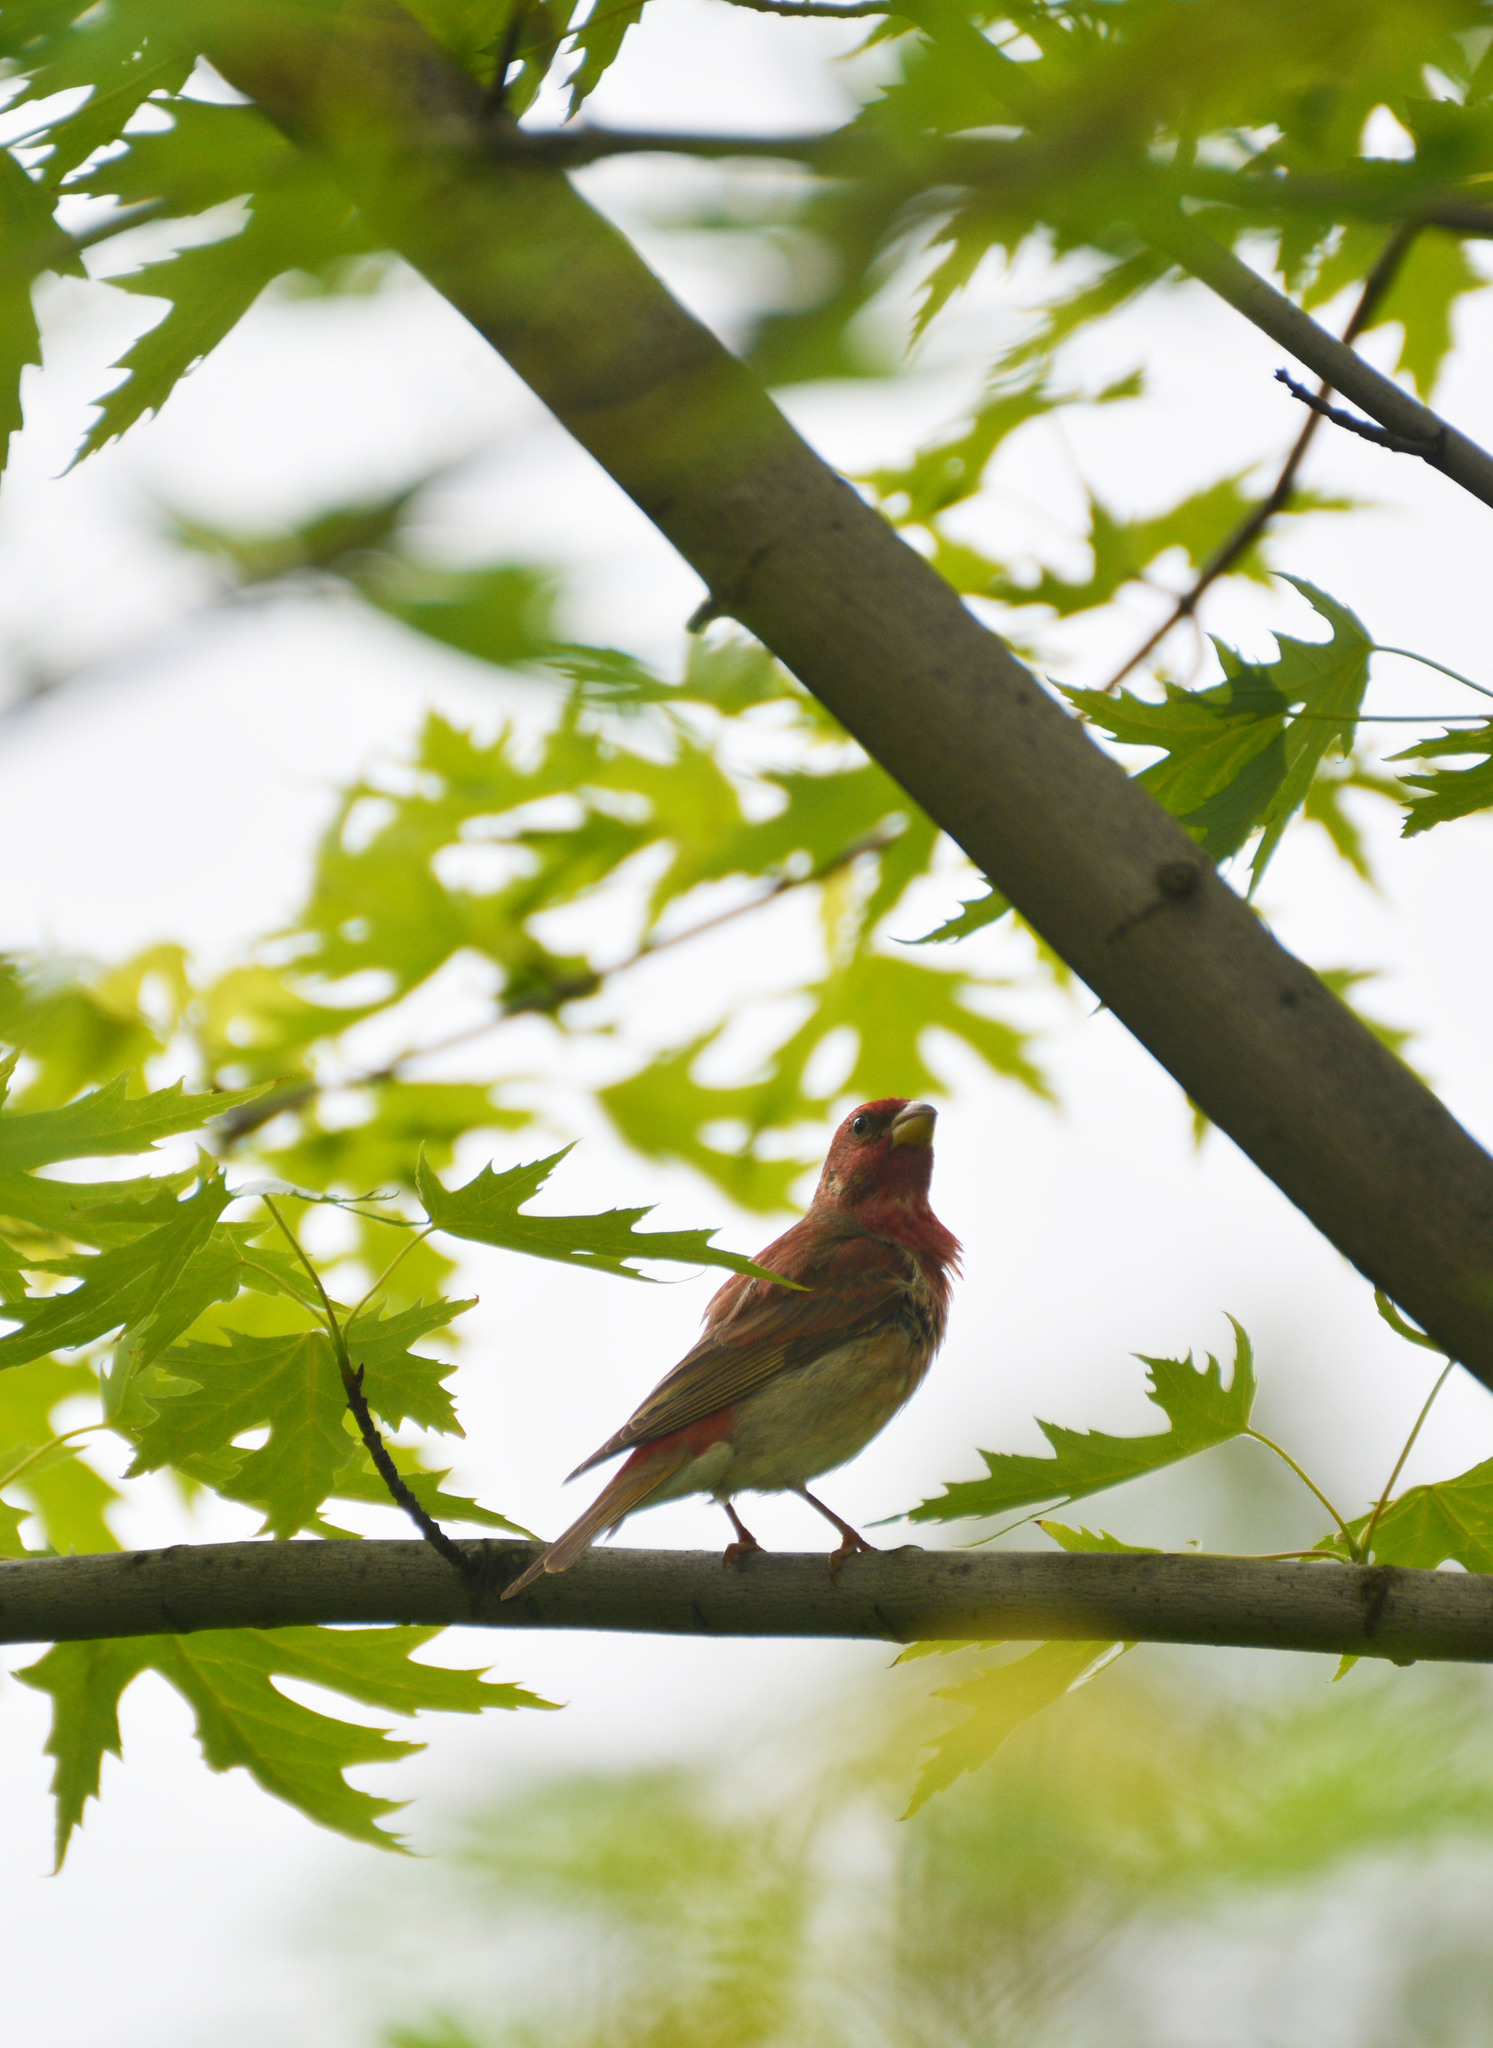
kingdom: Animalia
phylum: Chordata
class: Aves
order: Passeriformes
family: Fringillidae
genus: Carpodacus
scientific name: Carpodacus erythrinus
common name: Common rosefinch
